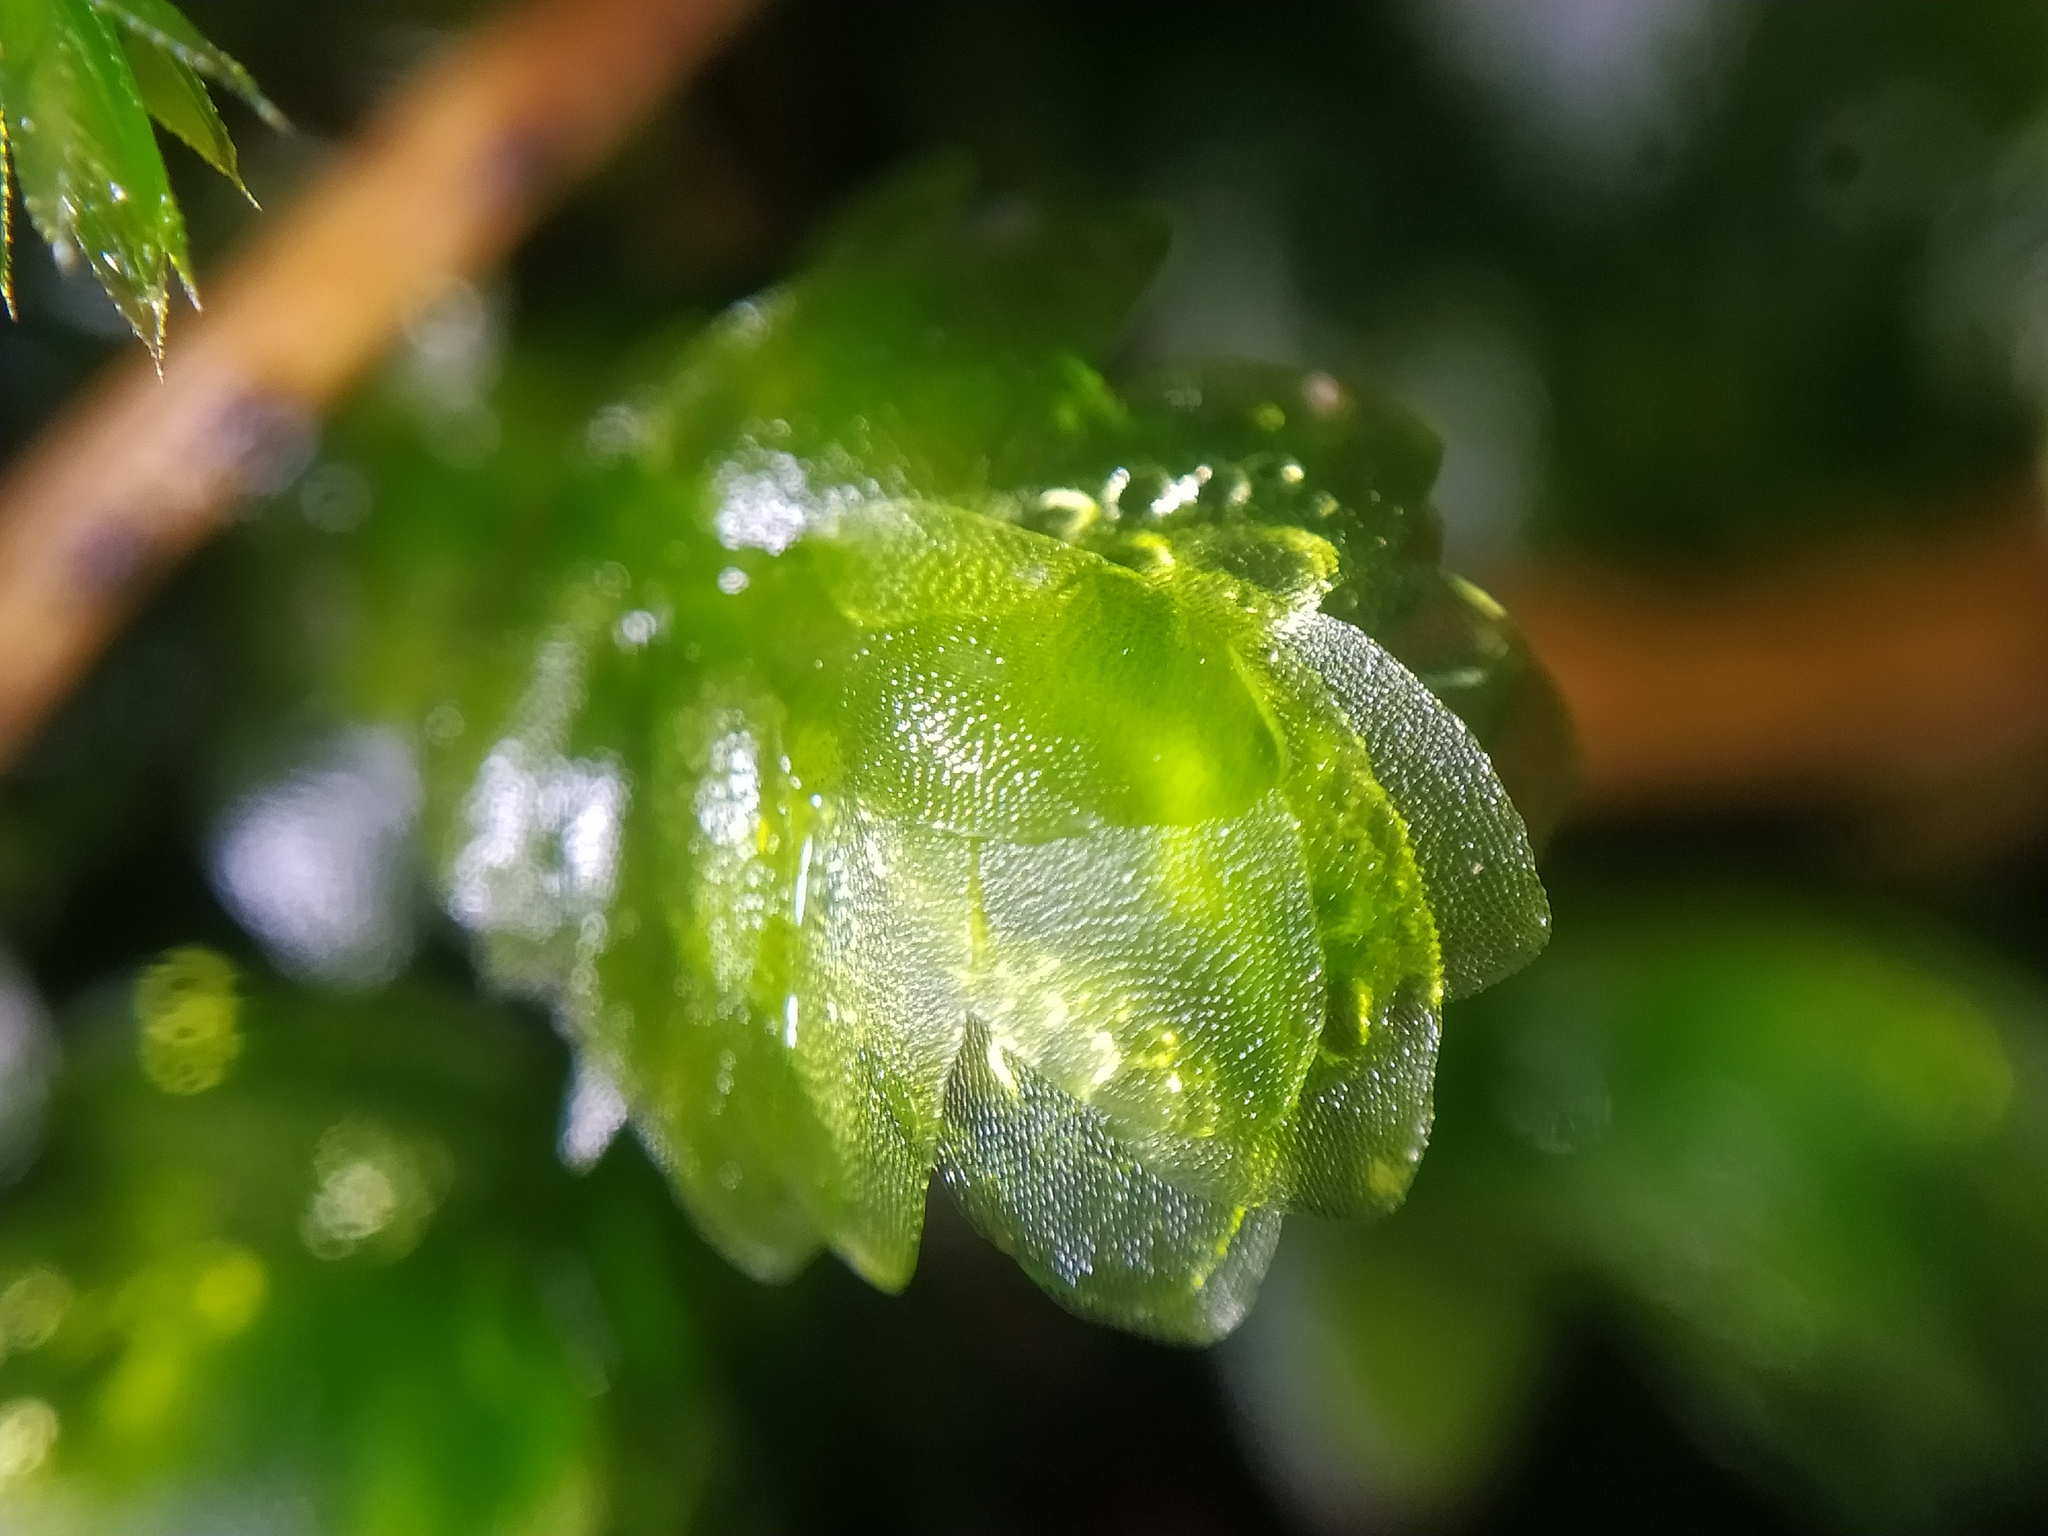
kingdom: Plantae
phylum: Bryophyta
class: Bryopsida
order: Hookeriales
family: Hookeriaceae
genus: Hookeria
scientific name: Hookeria lucens
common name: Shining hookeria
